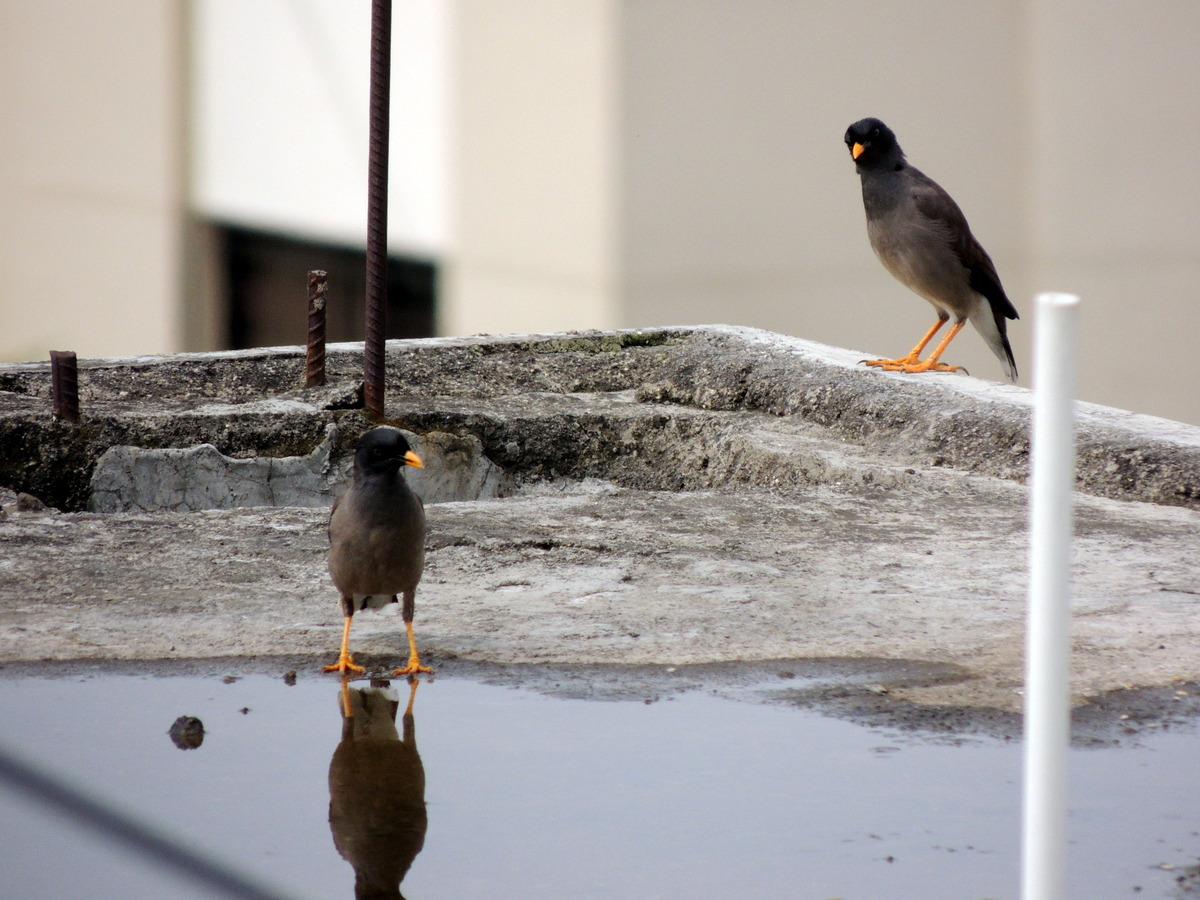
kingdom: Animalia
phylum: Chordata
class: Aves
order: Passeriformes
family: Sturnidae
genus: Acridotheres
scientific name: Acridotheres fuscus
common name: Jungle myna
